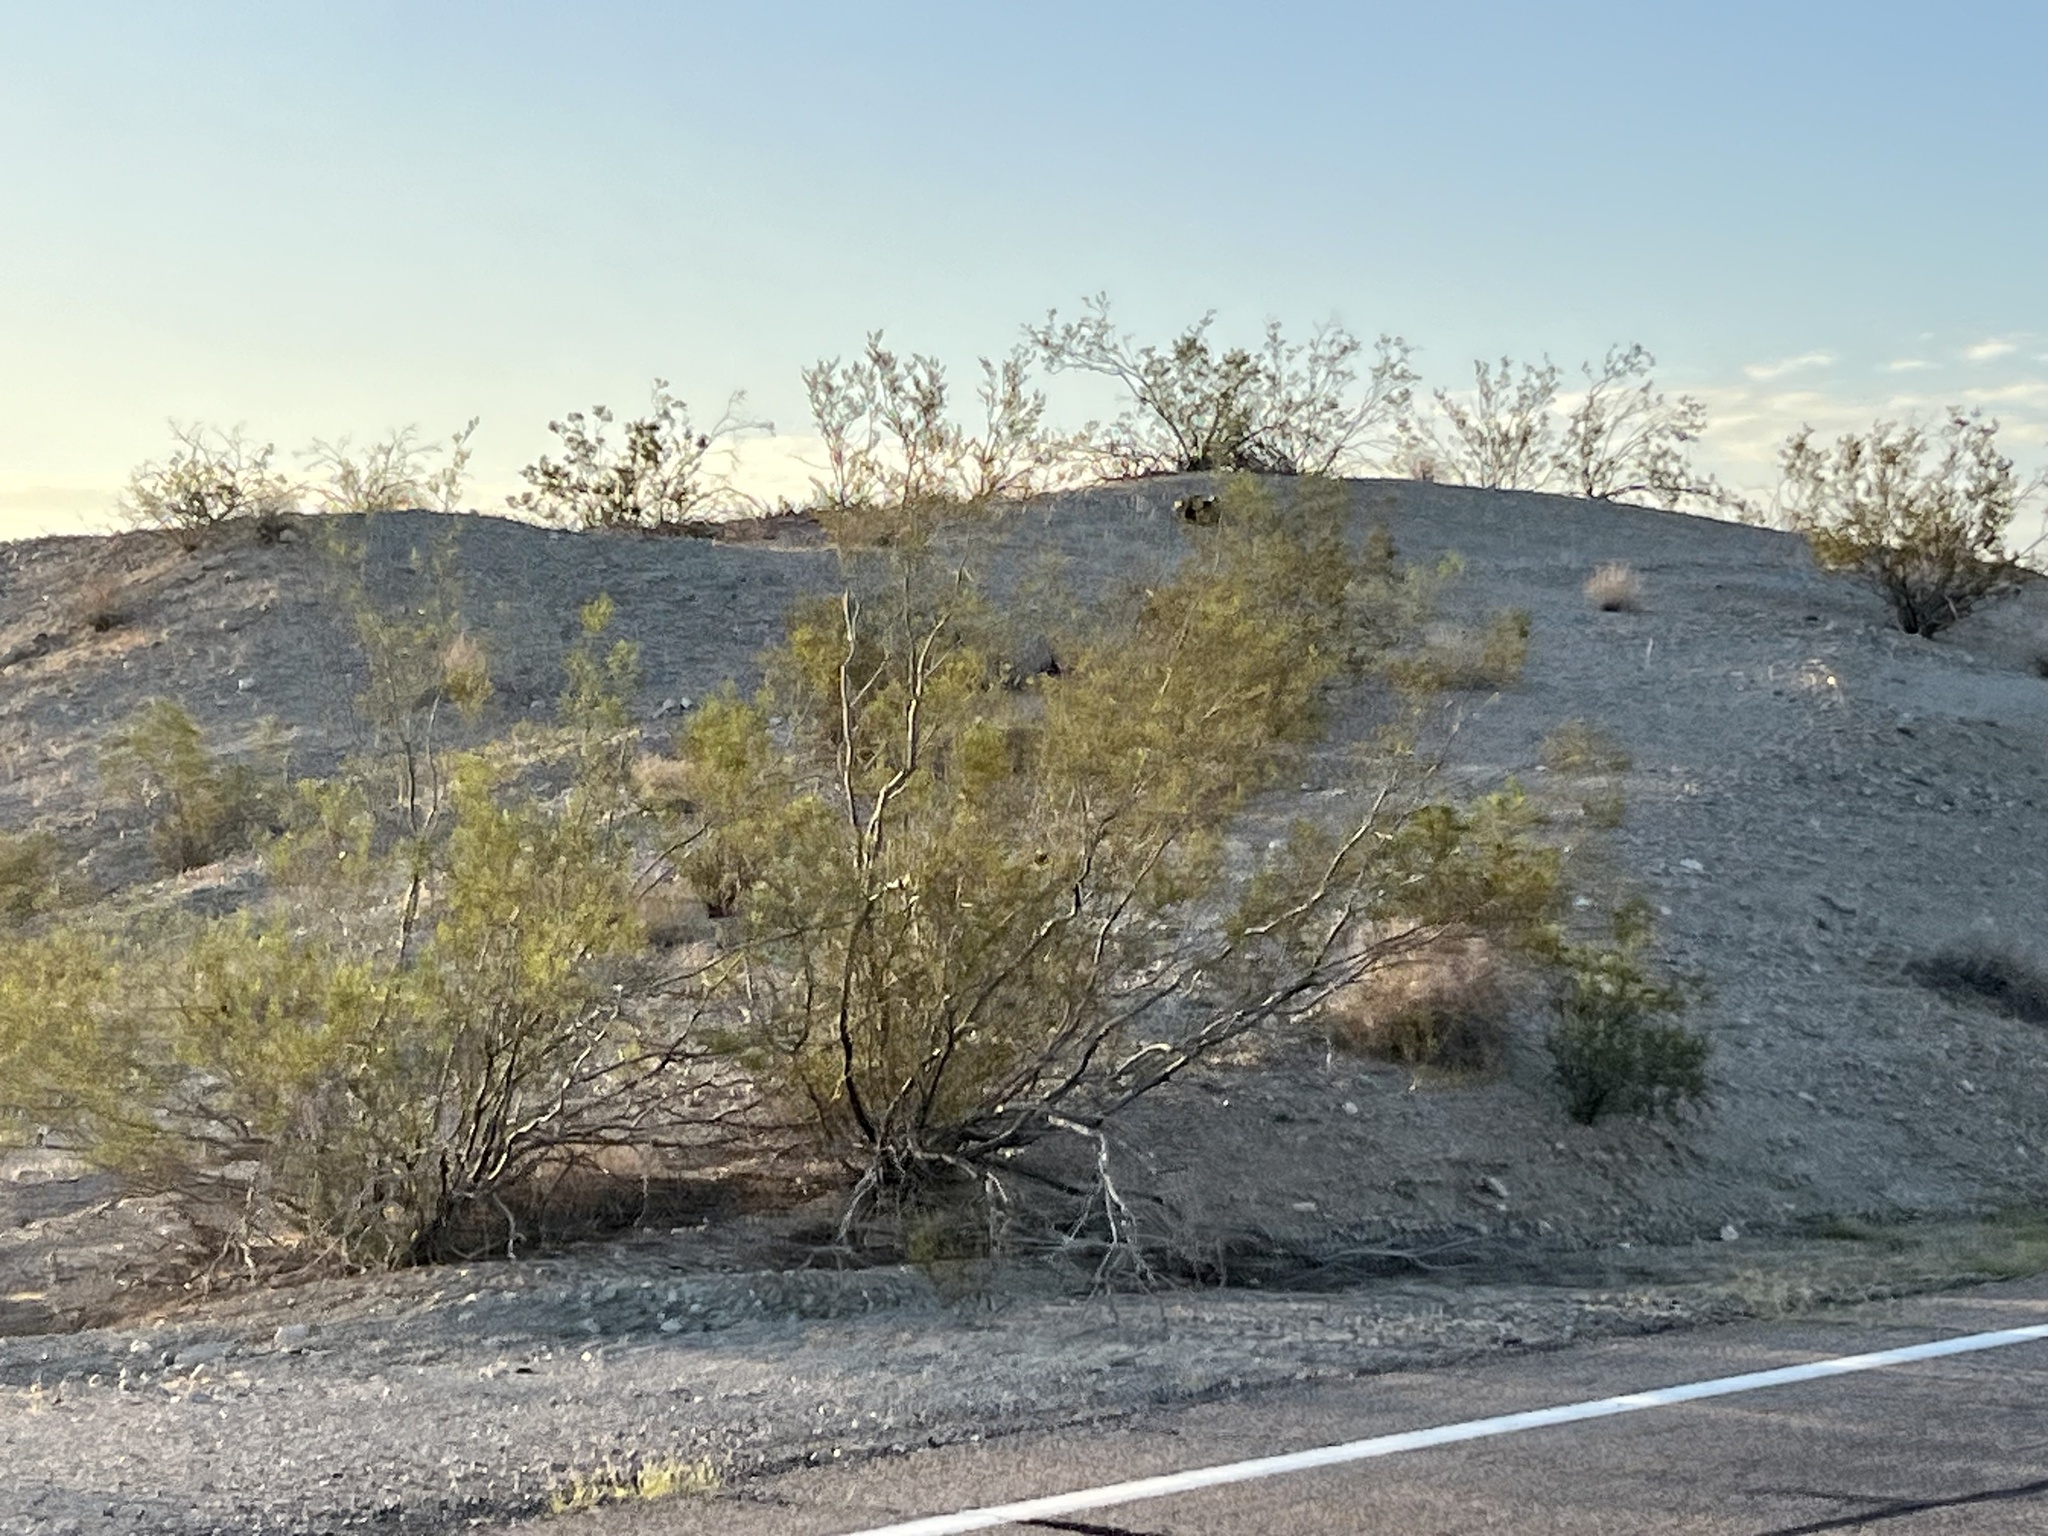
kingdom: Plantae
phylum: Tracheophyta
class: Magnoliopsida
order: Zygophyllales
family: Zygophyllaceae
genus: Larrea
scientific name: Larrea tridentata
